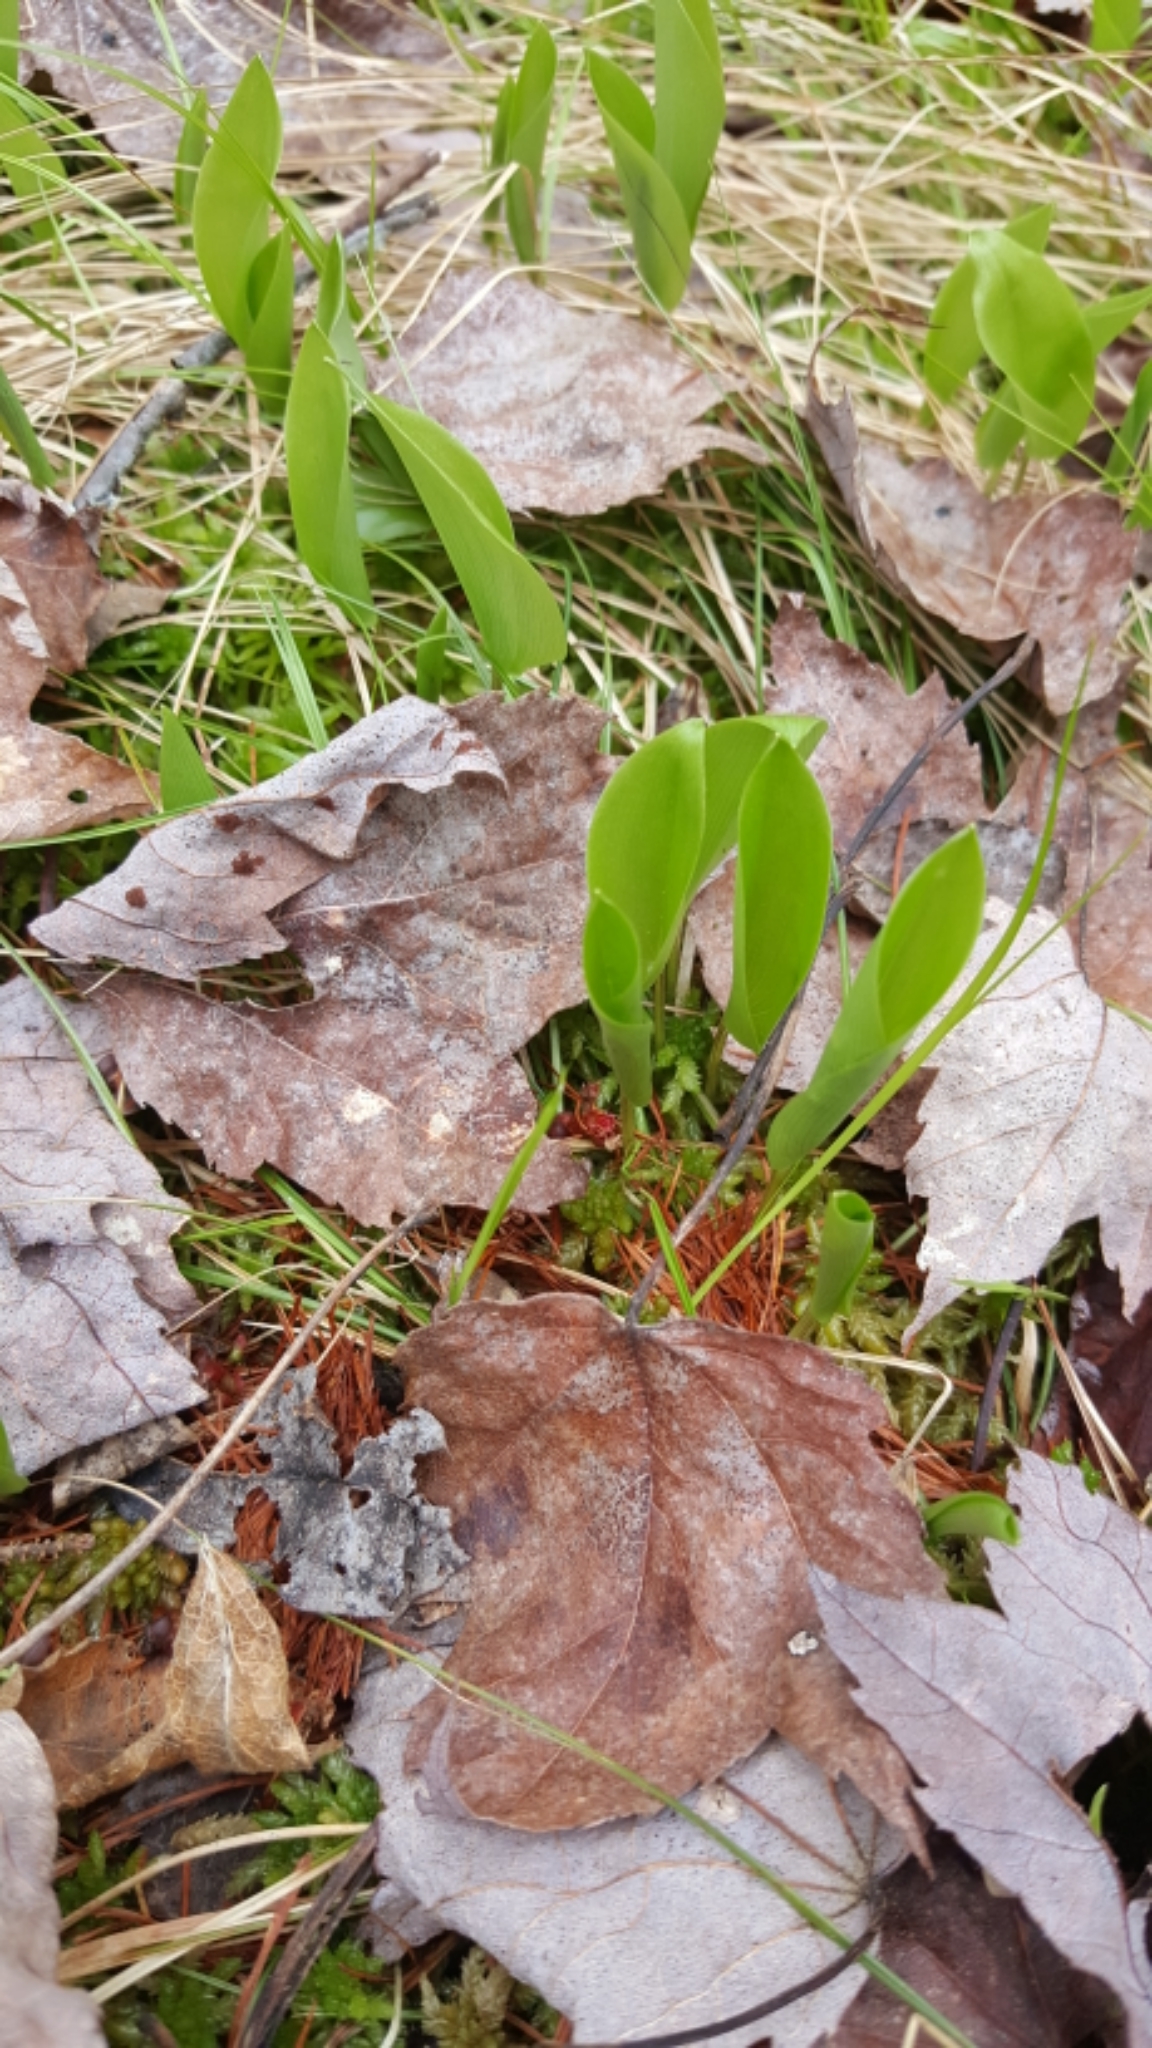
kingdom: Plantae
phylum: Tracheophyta
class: Liliopsida
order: Asparagales
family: Asparagaceae
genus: Maianthemum
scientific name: Maianthemum canadense
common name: False lily-of-the-valley
